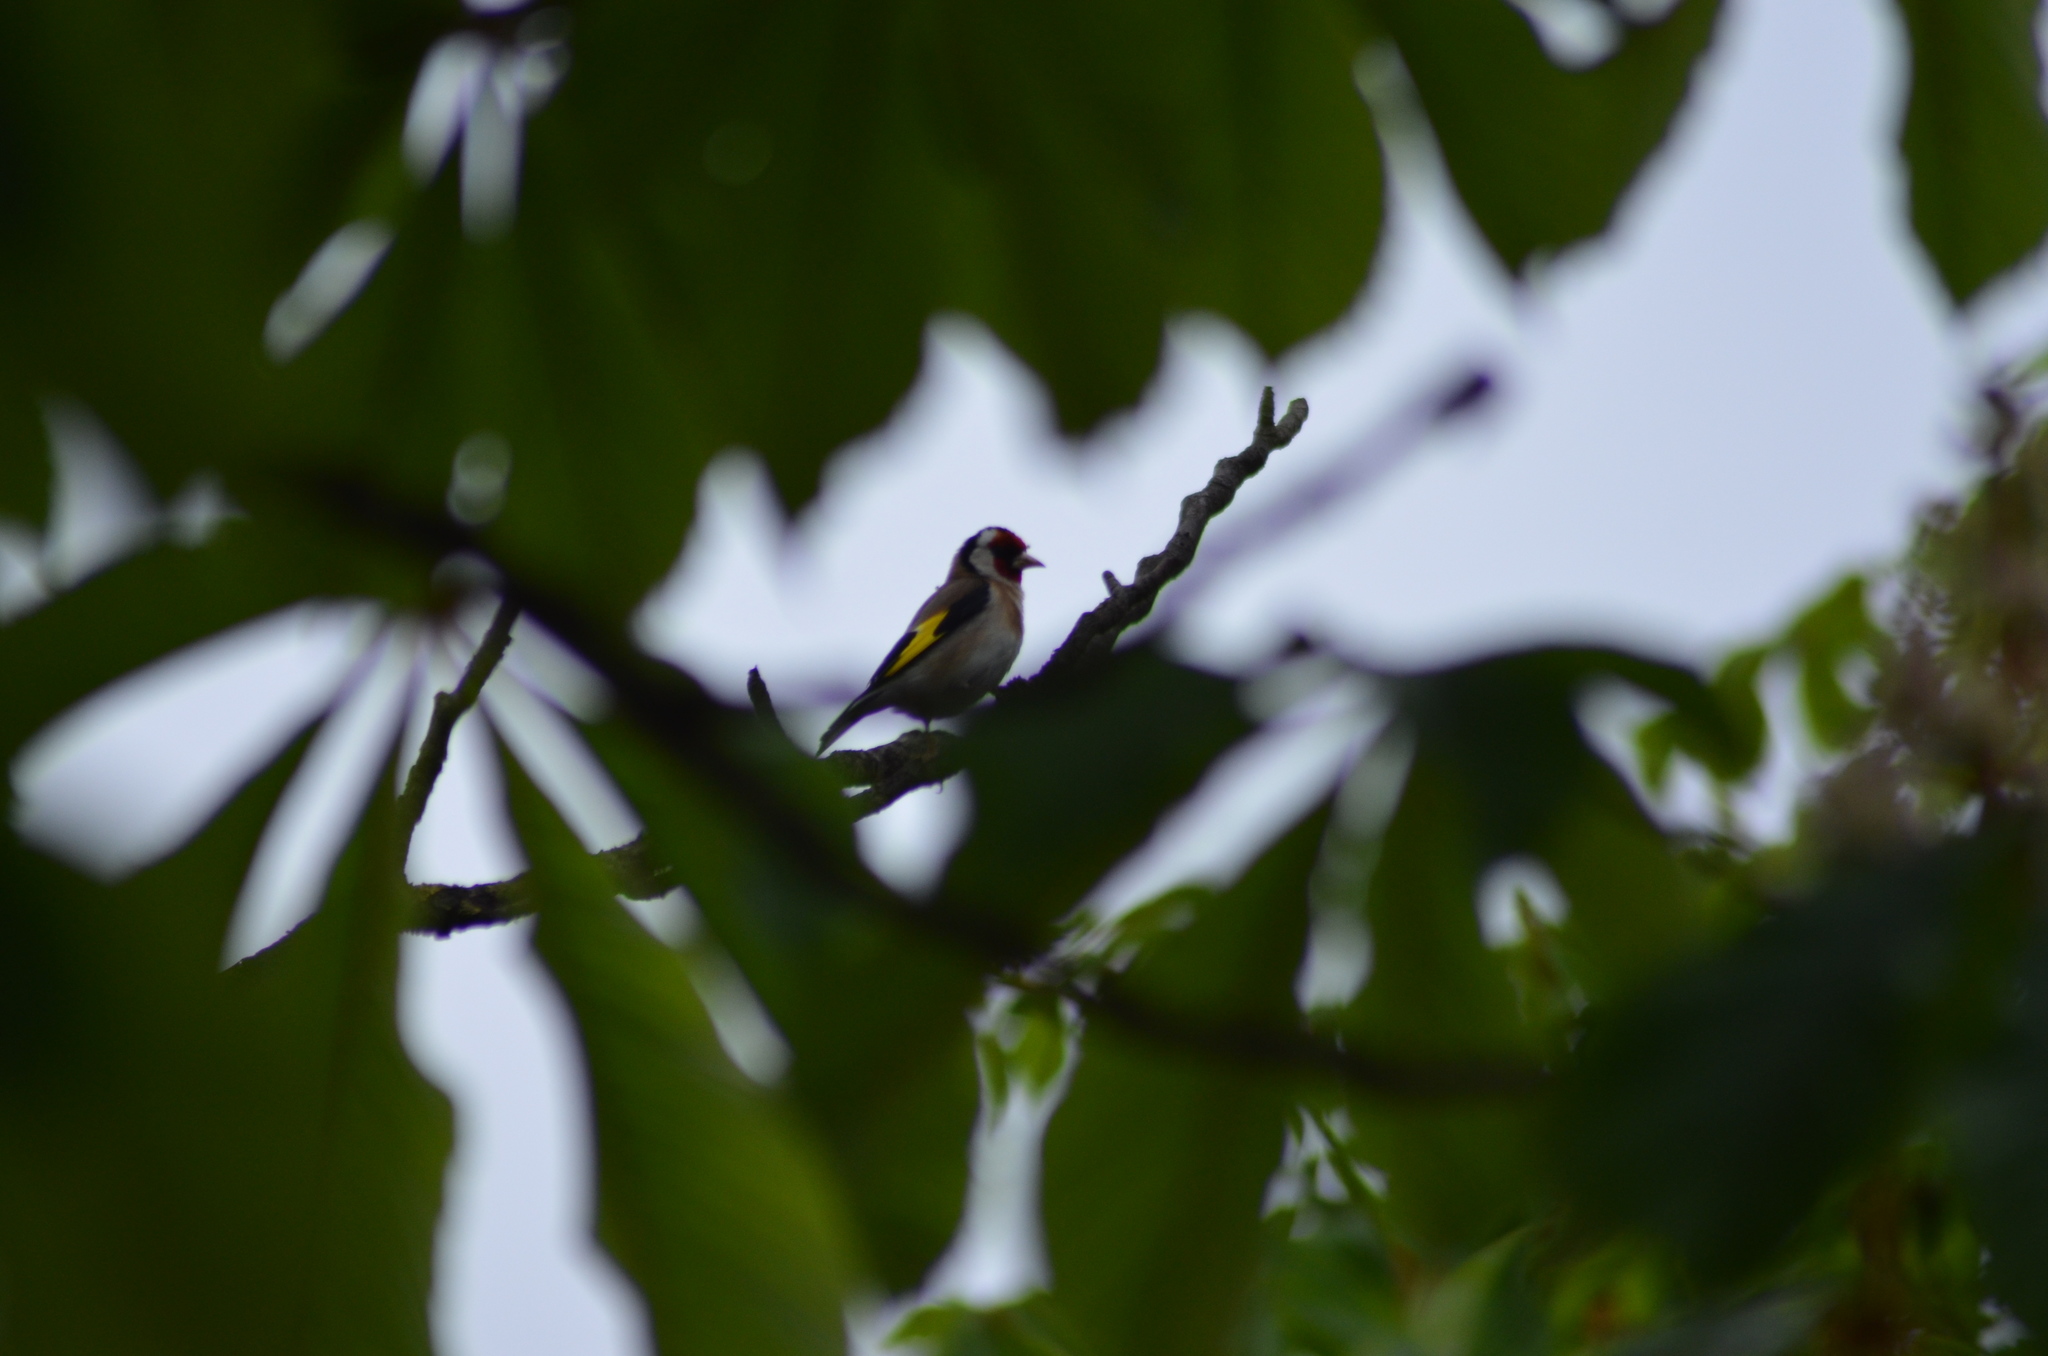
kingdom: Animalia
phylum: Chordata
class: Aves
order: Passeriformes
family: Fringillidae
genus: Carduelis
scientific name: Carduelis carduelis
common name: European goldfinch
